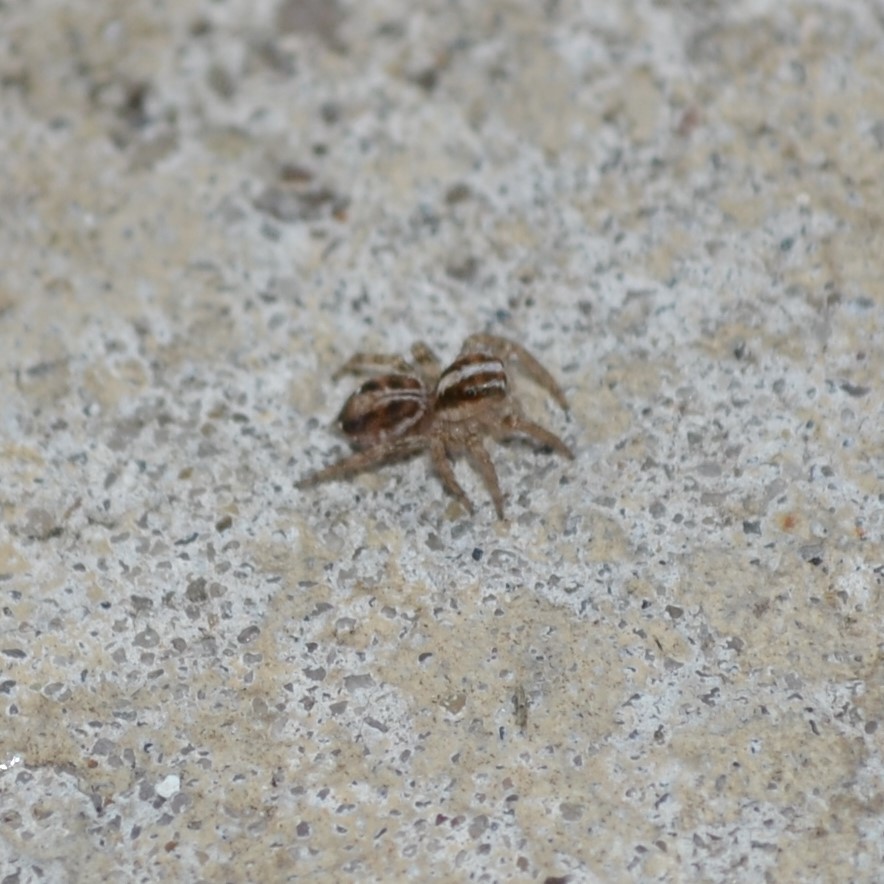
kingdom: Animalia
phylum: Arthropoda
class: Arachnida
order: Araneae
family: Salticidae
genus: Plexippus
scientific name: Plexippus paykulli
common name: Pantropical jumper
